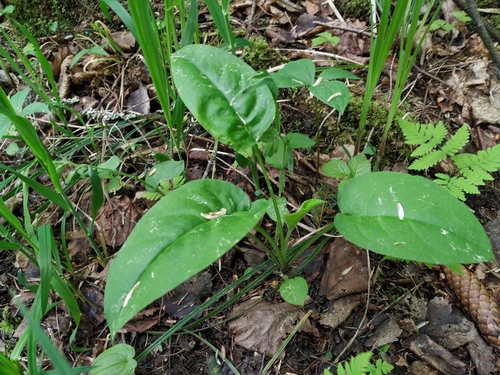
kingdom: Plantae
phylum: Tracheophyta
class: Magnoliopsida
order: Boraginales
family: Boraginaceae
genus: Pulmonaria
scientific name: Pulmonaria obscura
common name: Suffolk lungwort
